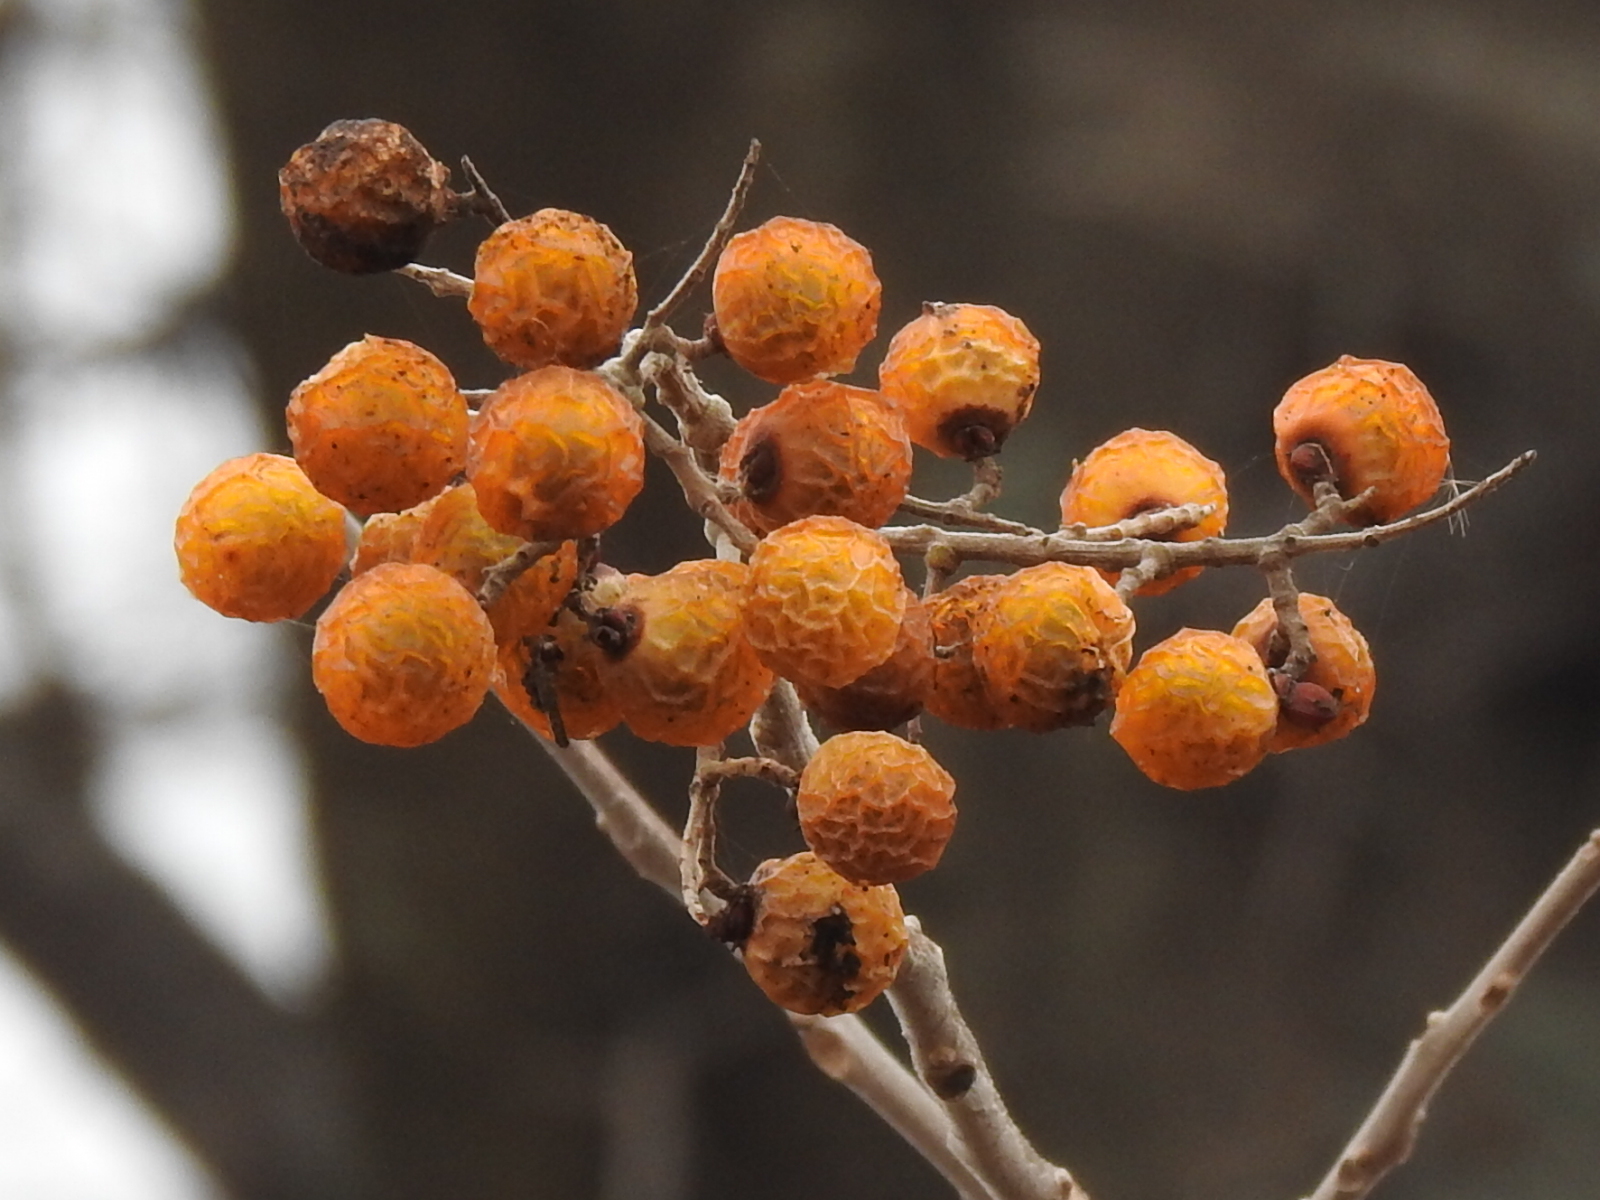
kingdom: Plantae
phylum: Tracheophyta
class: Magnoliopsida
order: Sapindales
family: Sapindaceae
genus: Sapindus
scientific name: Sapindus drummondii
